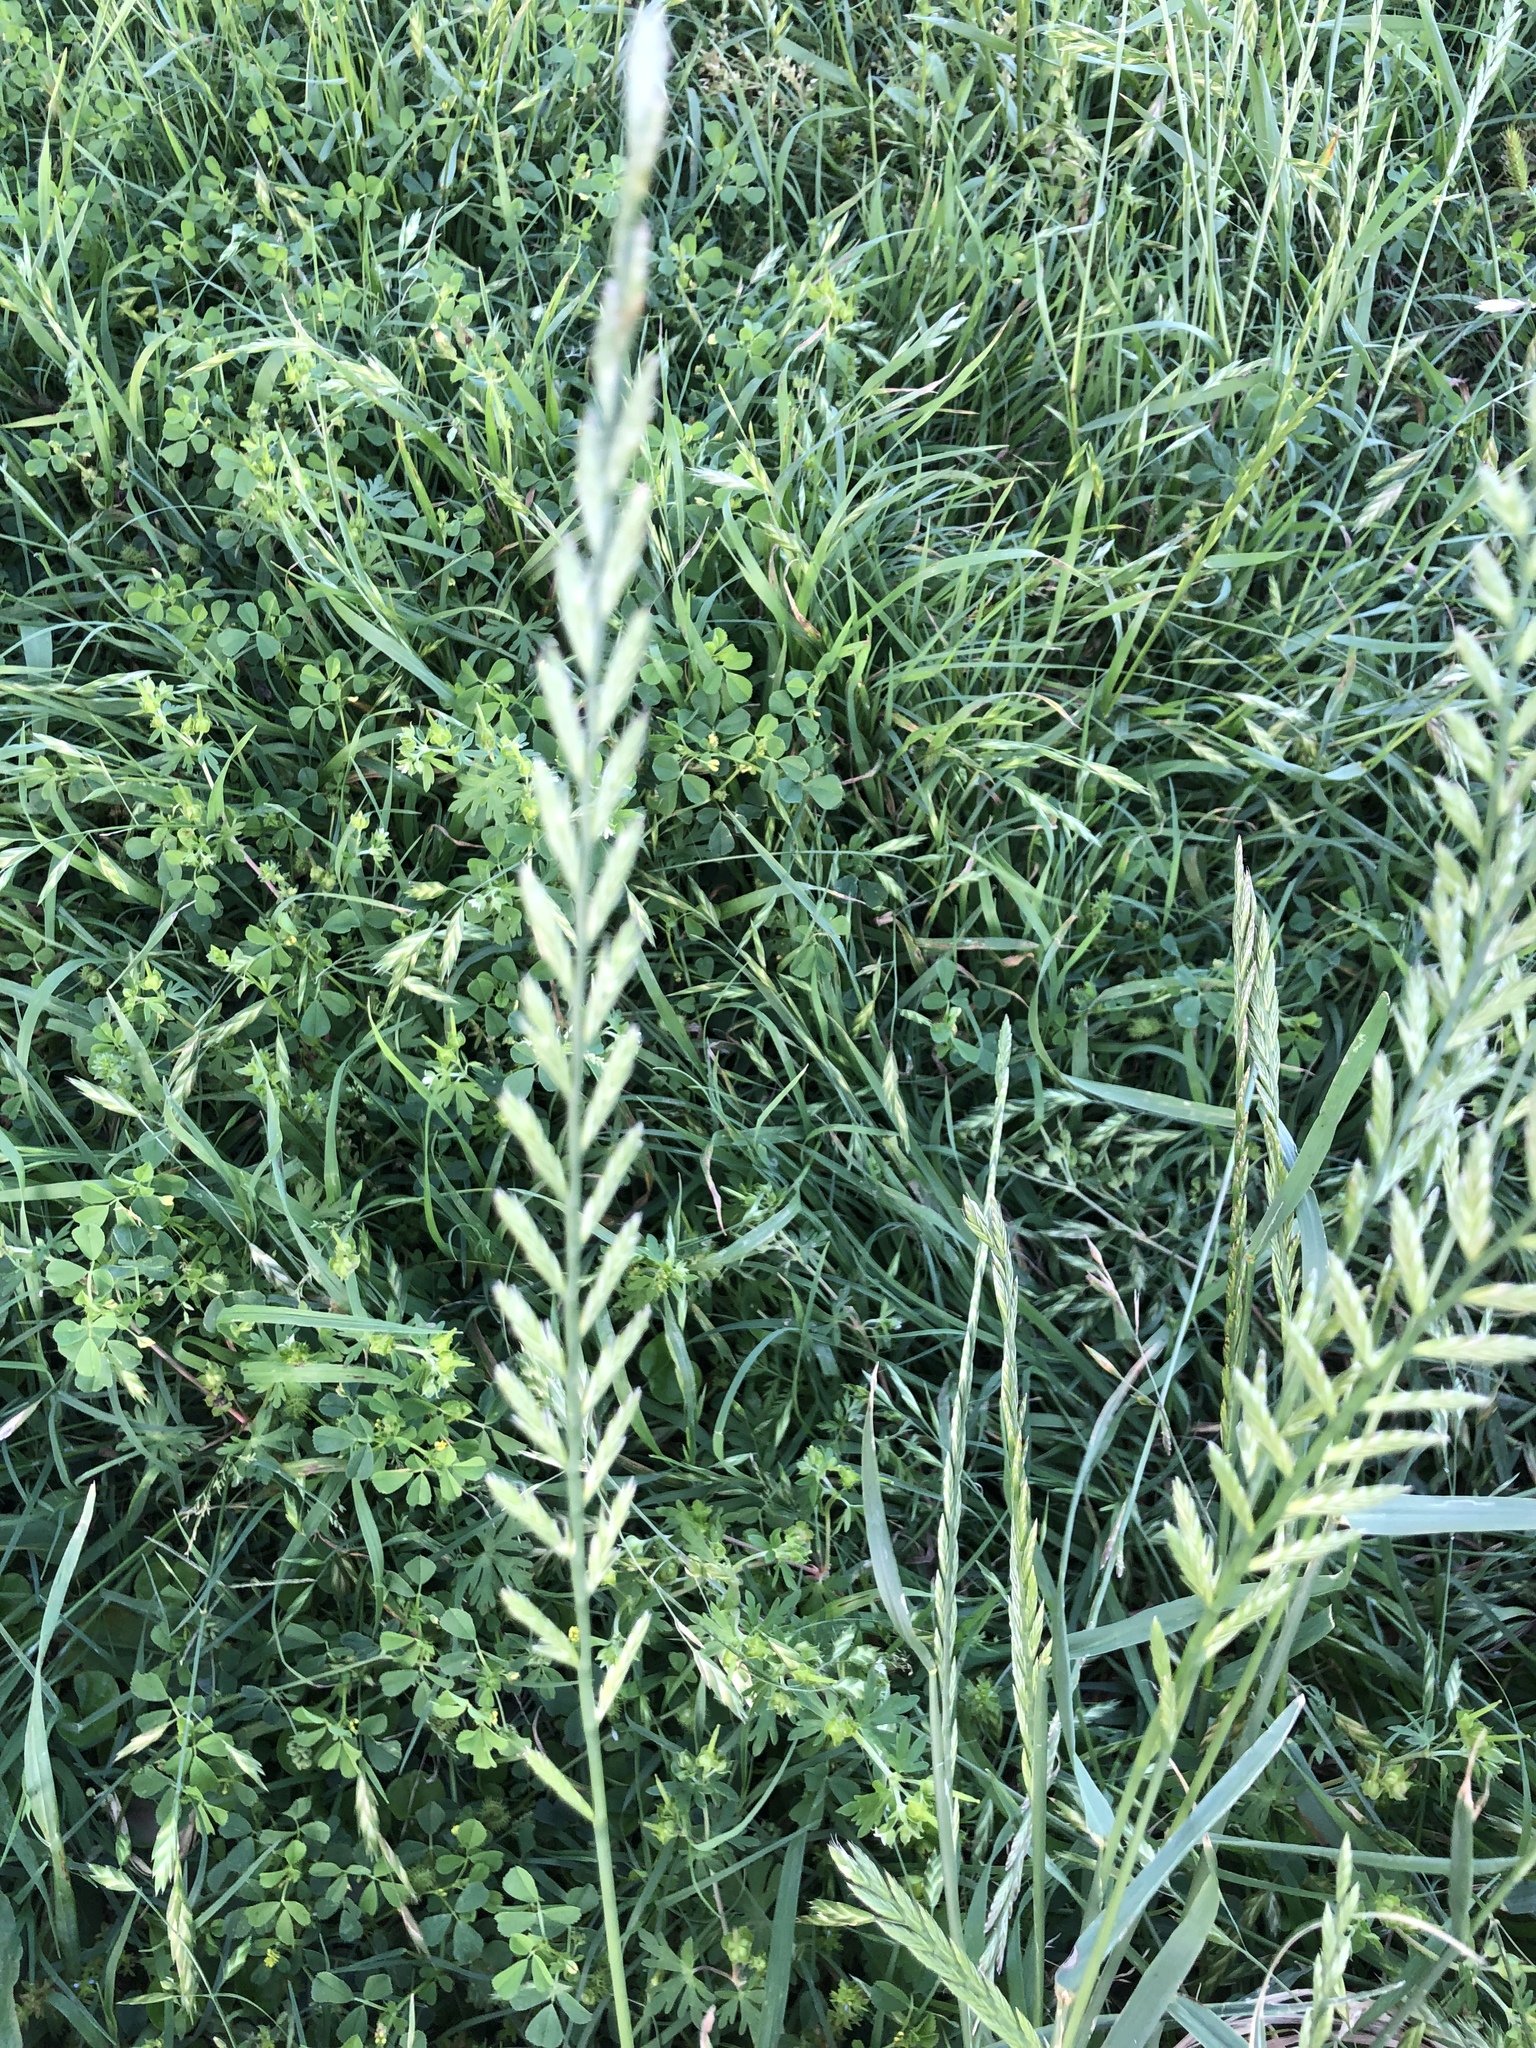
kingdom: Plantae
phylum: Tracheophyta
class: Liliopsida
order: Poales
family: Poaceae
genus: Lolium
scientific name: Lolium perenne
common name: Perennial ryegrass
